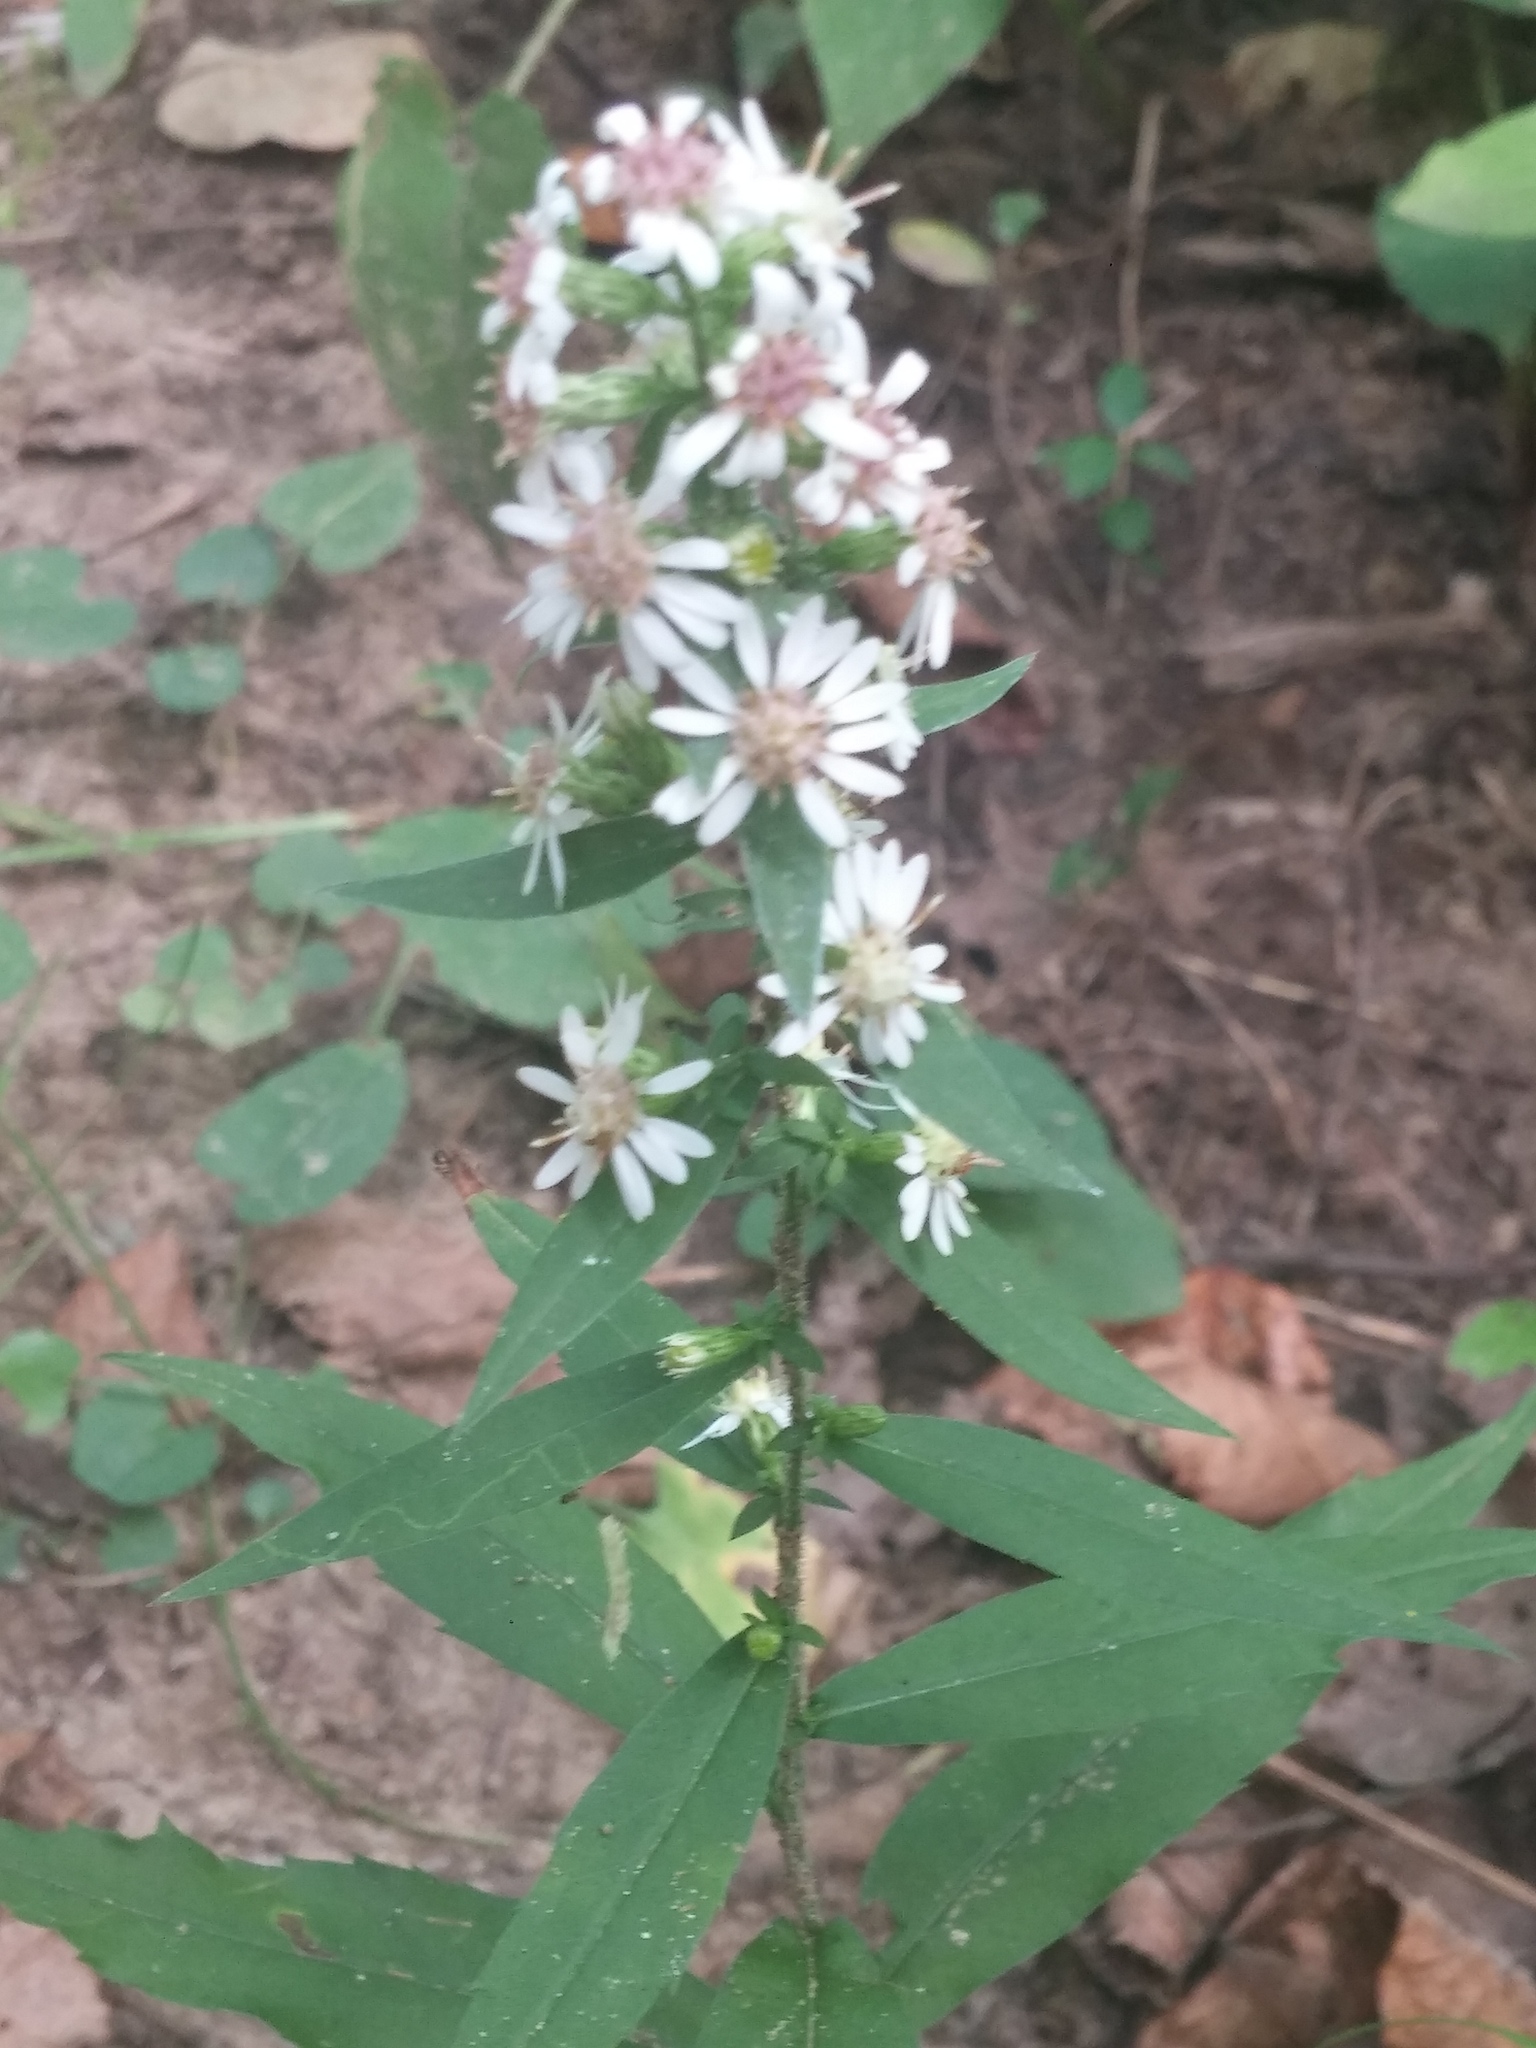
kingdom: Plantae
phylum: Tracheophyta
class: Magnoliopsida
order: Asterales
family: Asteraceae
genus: Symphyotrichum
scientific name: Symphyotrichum lateriflorum
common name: Calico aster
